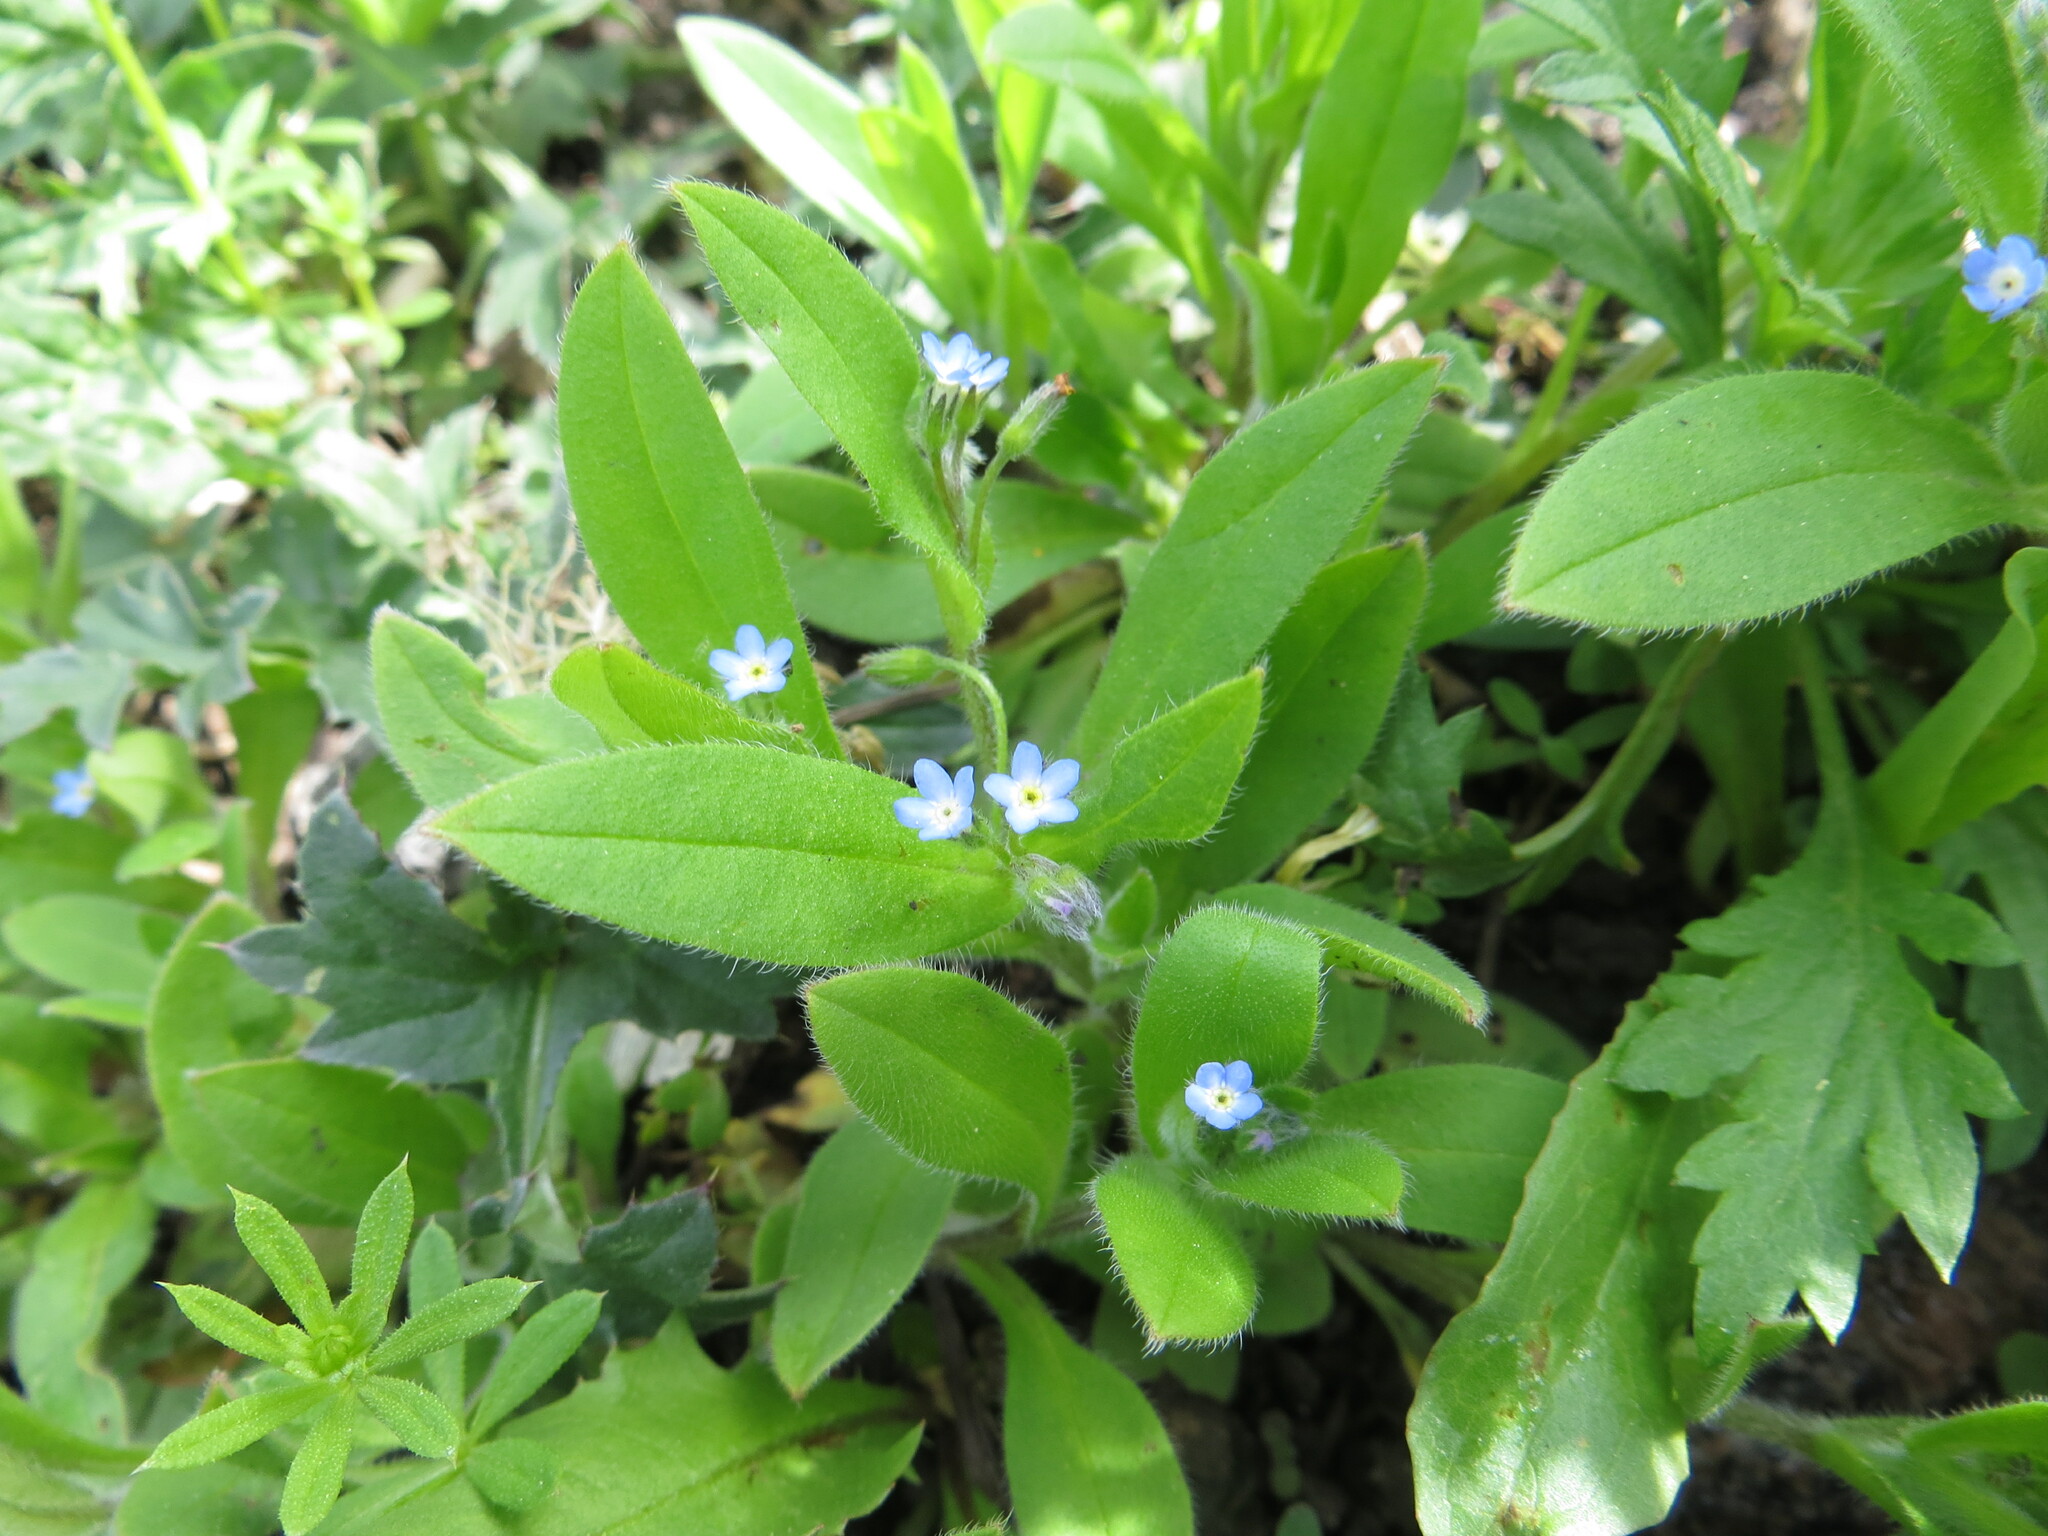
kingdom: Plantae
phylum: Tracheophyta
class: Magnoliopsida
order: Boraginales
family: Boraginaceae
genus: Myosotis
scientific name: Myosotis sparsiflora
